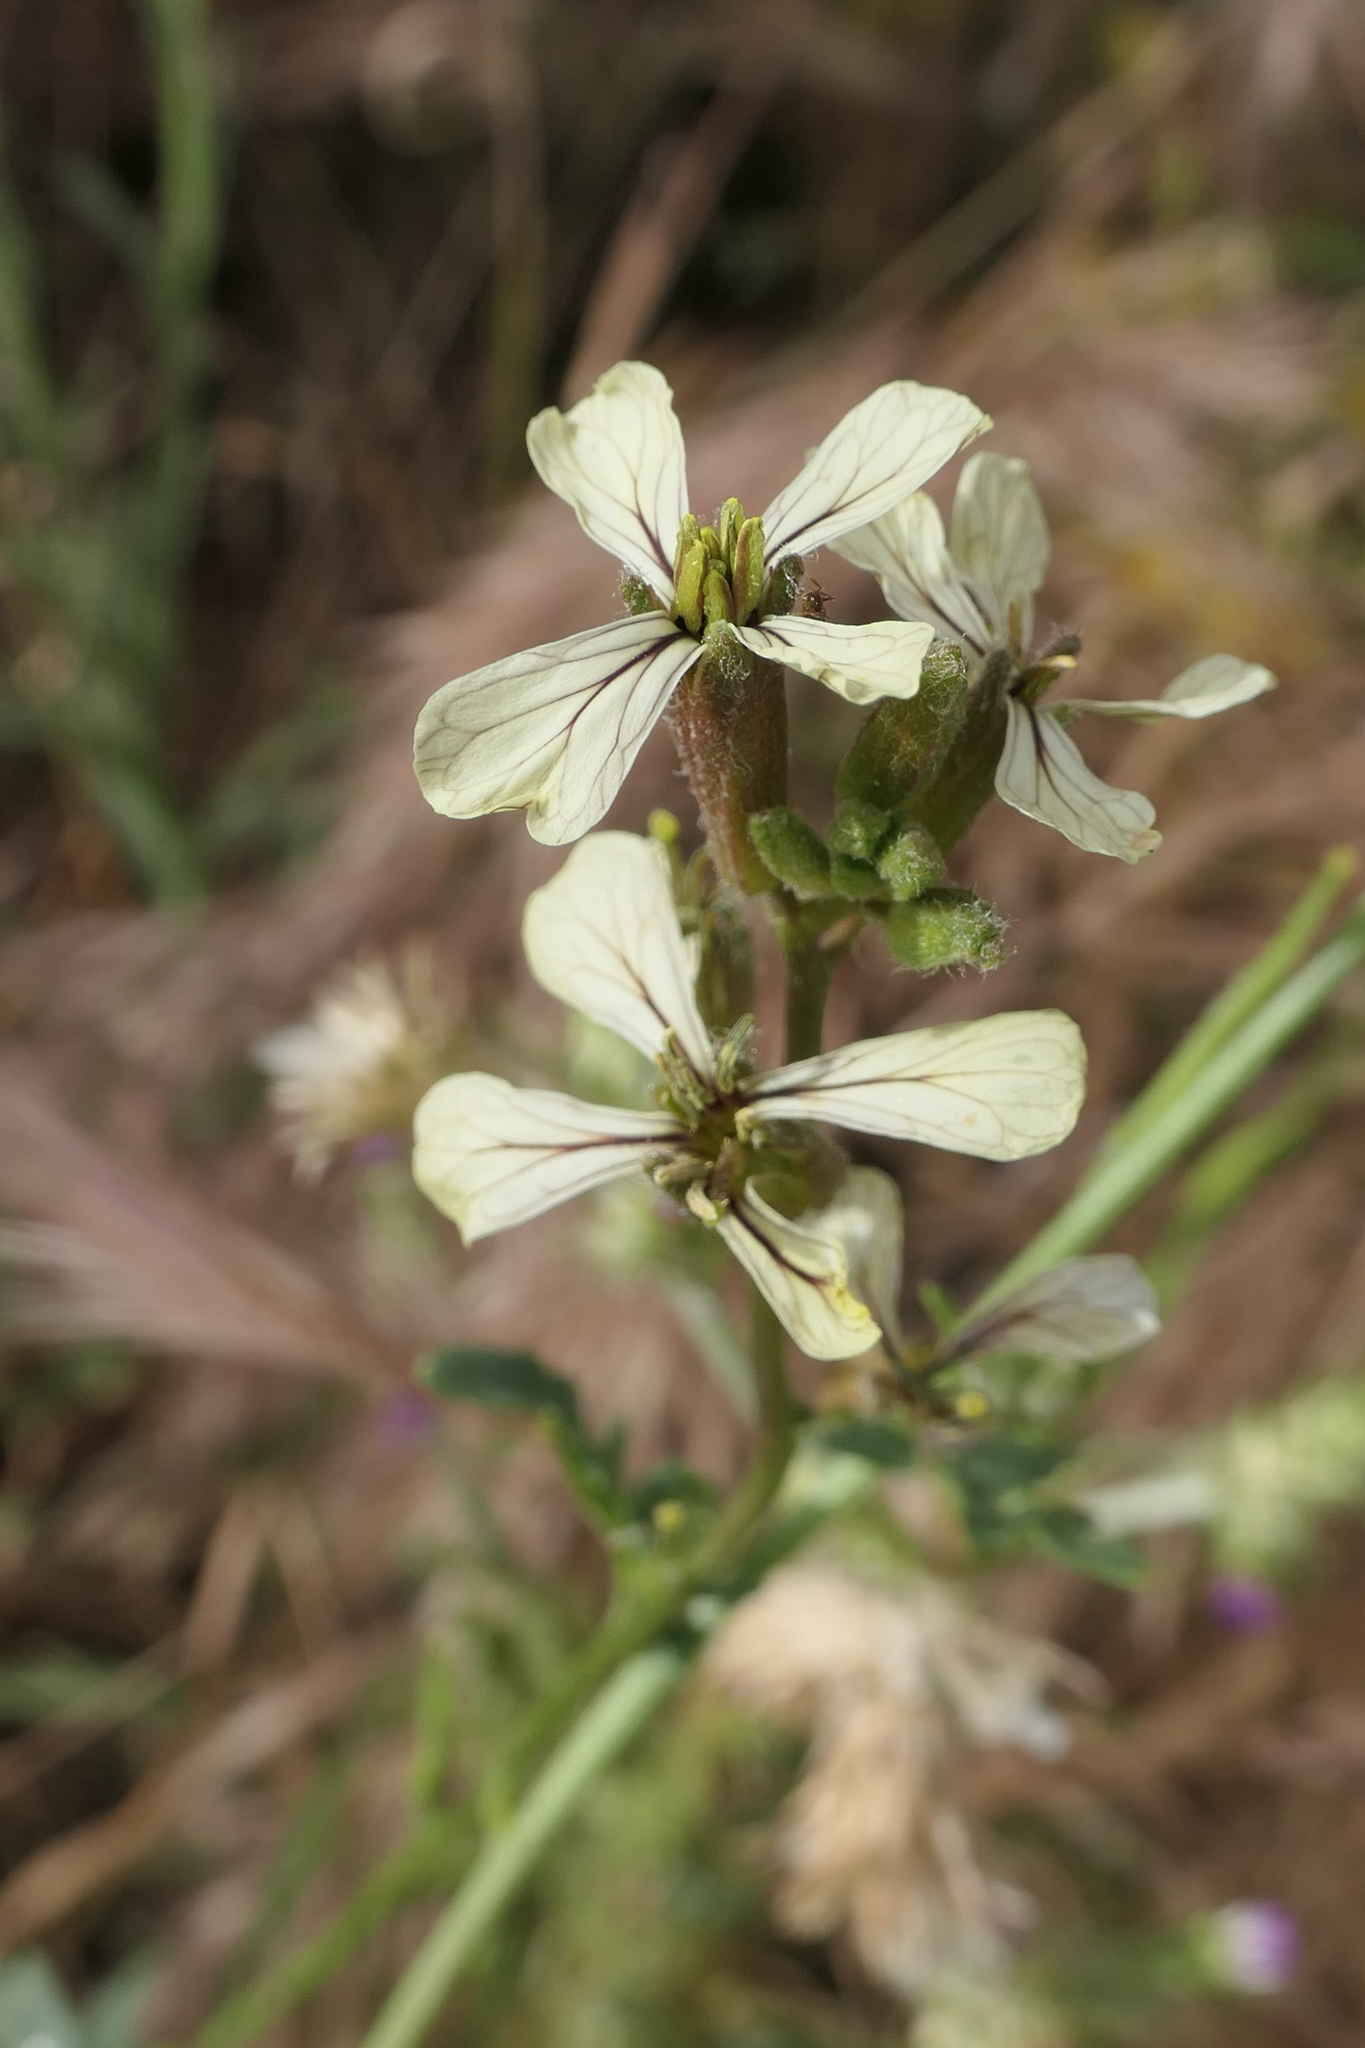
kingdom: Plantae
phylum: Tracheophyta
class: Magnoliopsida
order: Brassicales
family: Brassicaceae
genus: Eruca
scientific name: Eruca vesicaria
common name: Garden rocket
